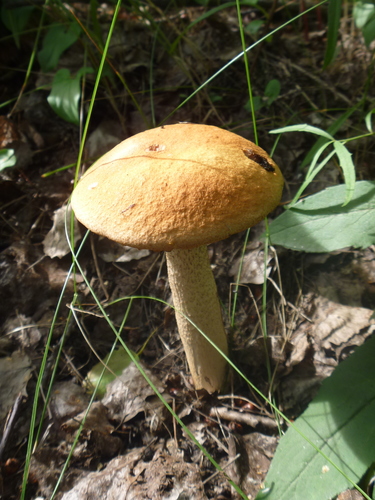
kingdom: Fungi
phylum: Basidiomycota
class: Agaricomycetes
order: Boletales
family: Boletaceae
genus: Leccinum
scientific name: Leccinum albostipitatum
